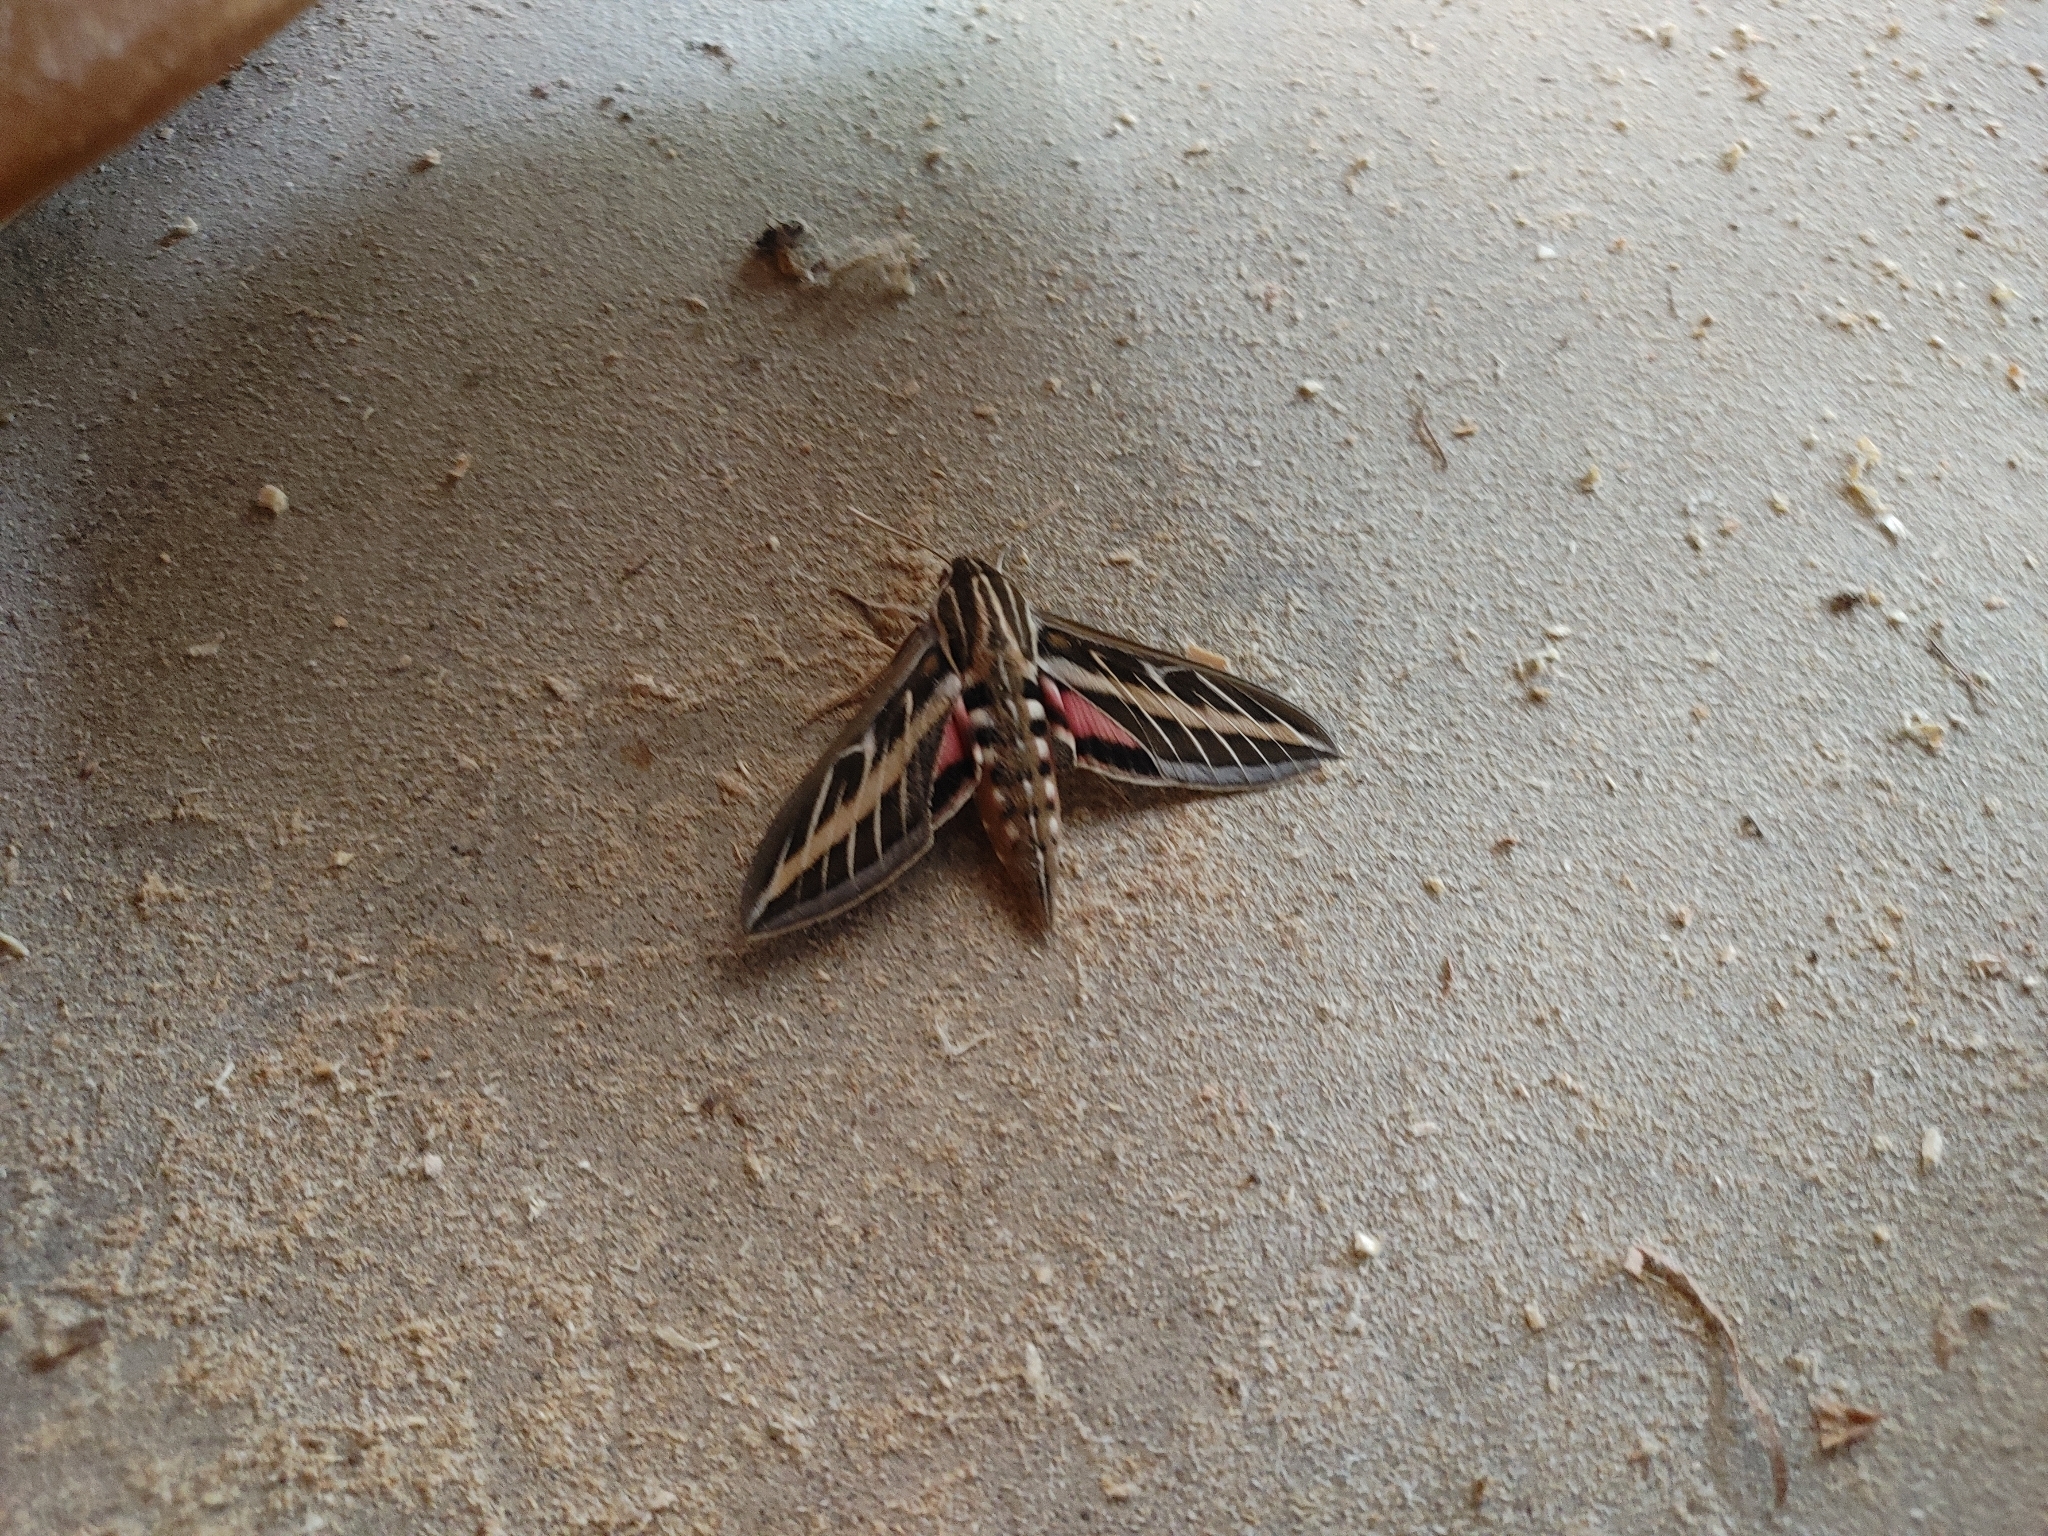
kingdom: Animalia
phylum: Arthropoda
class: Insecta
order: Lepidoptera
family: Sphingidae
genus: Hyles
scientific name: Hyles lineata
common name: White-lined sphinx
